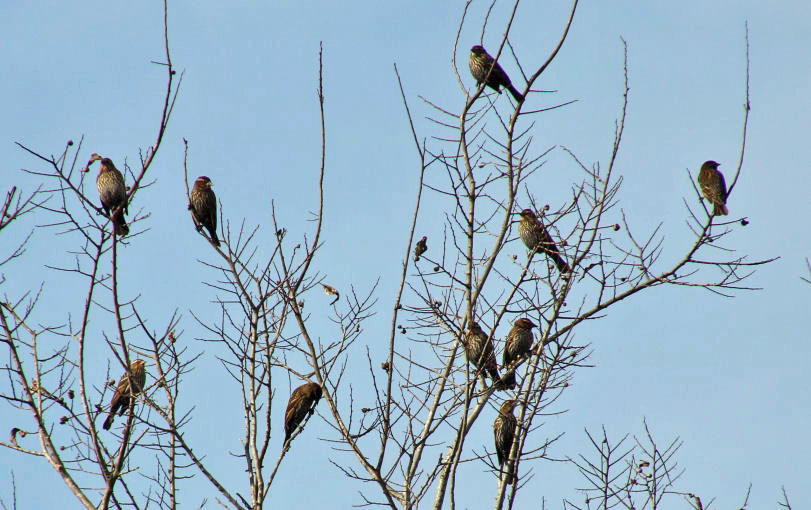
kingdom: Animalia
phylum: Chordata
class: Aves
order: Passeriformes
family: Icteridae
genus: Agelaius
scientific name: Agelaius phoeniceus
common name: Red-winged blackbird
